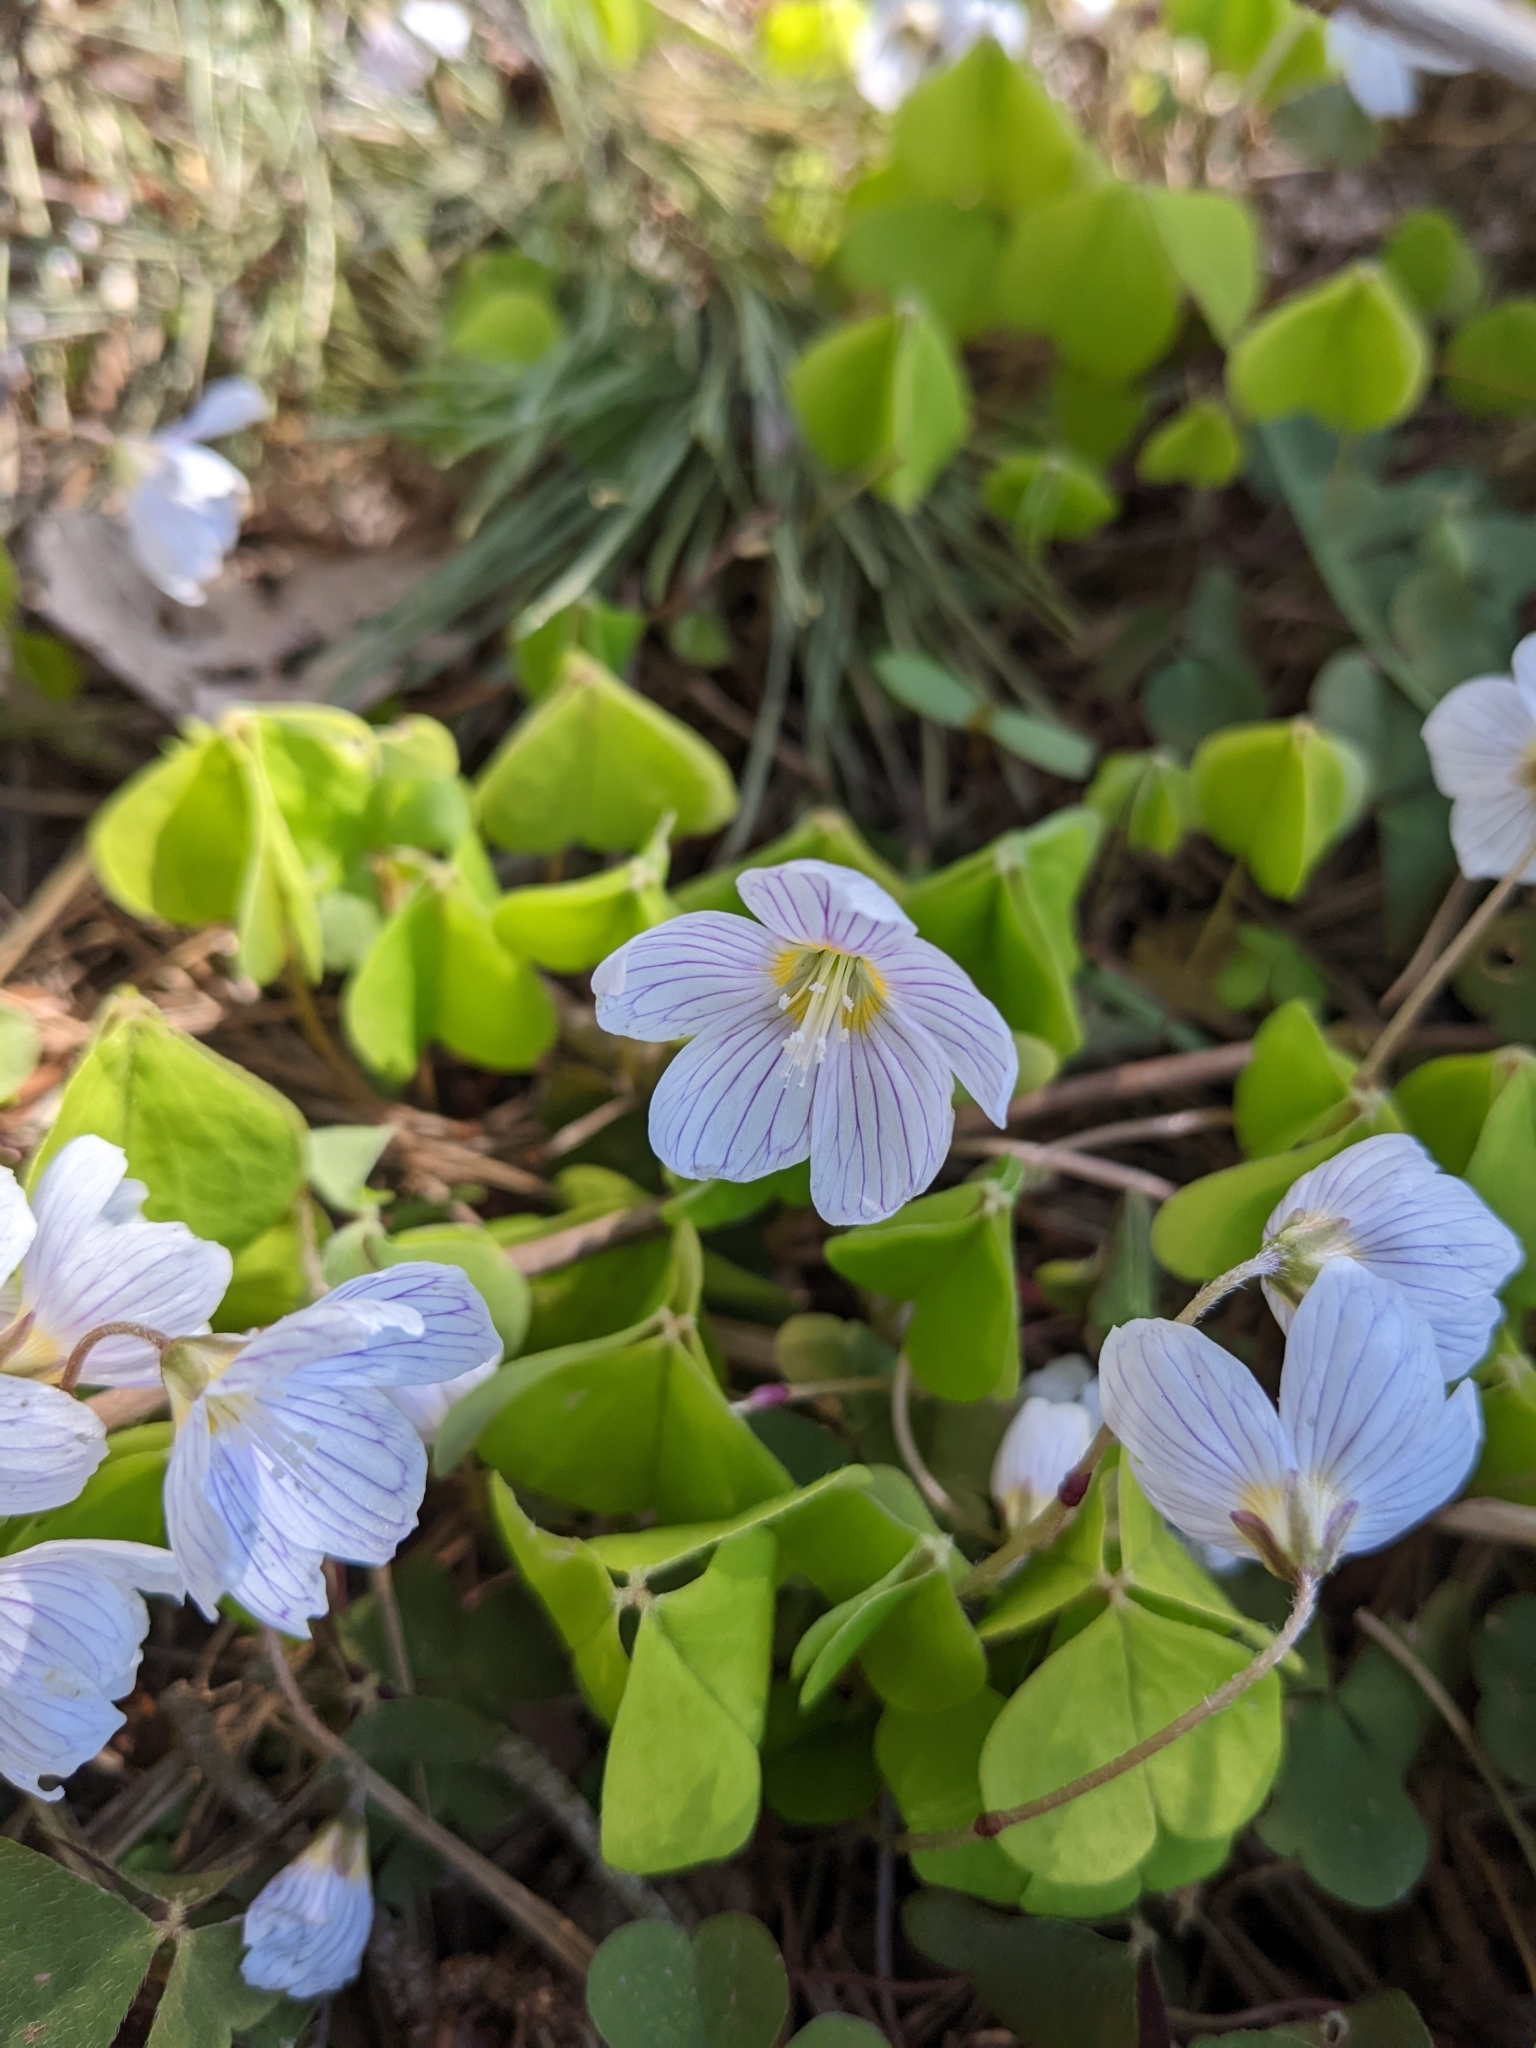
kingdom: Plantae
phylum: Tracheophyta
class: Magnoliopsida
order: Oxalidales
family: Oxalidaceae
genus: Oxalis
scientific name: Oxalis acetosella
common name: Wood-sorrel
